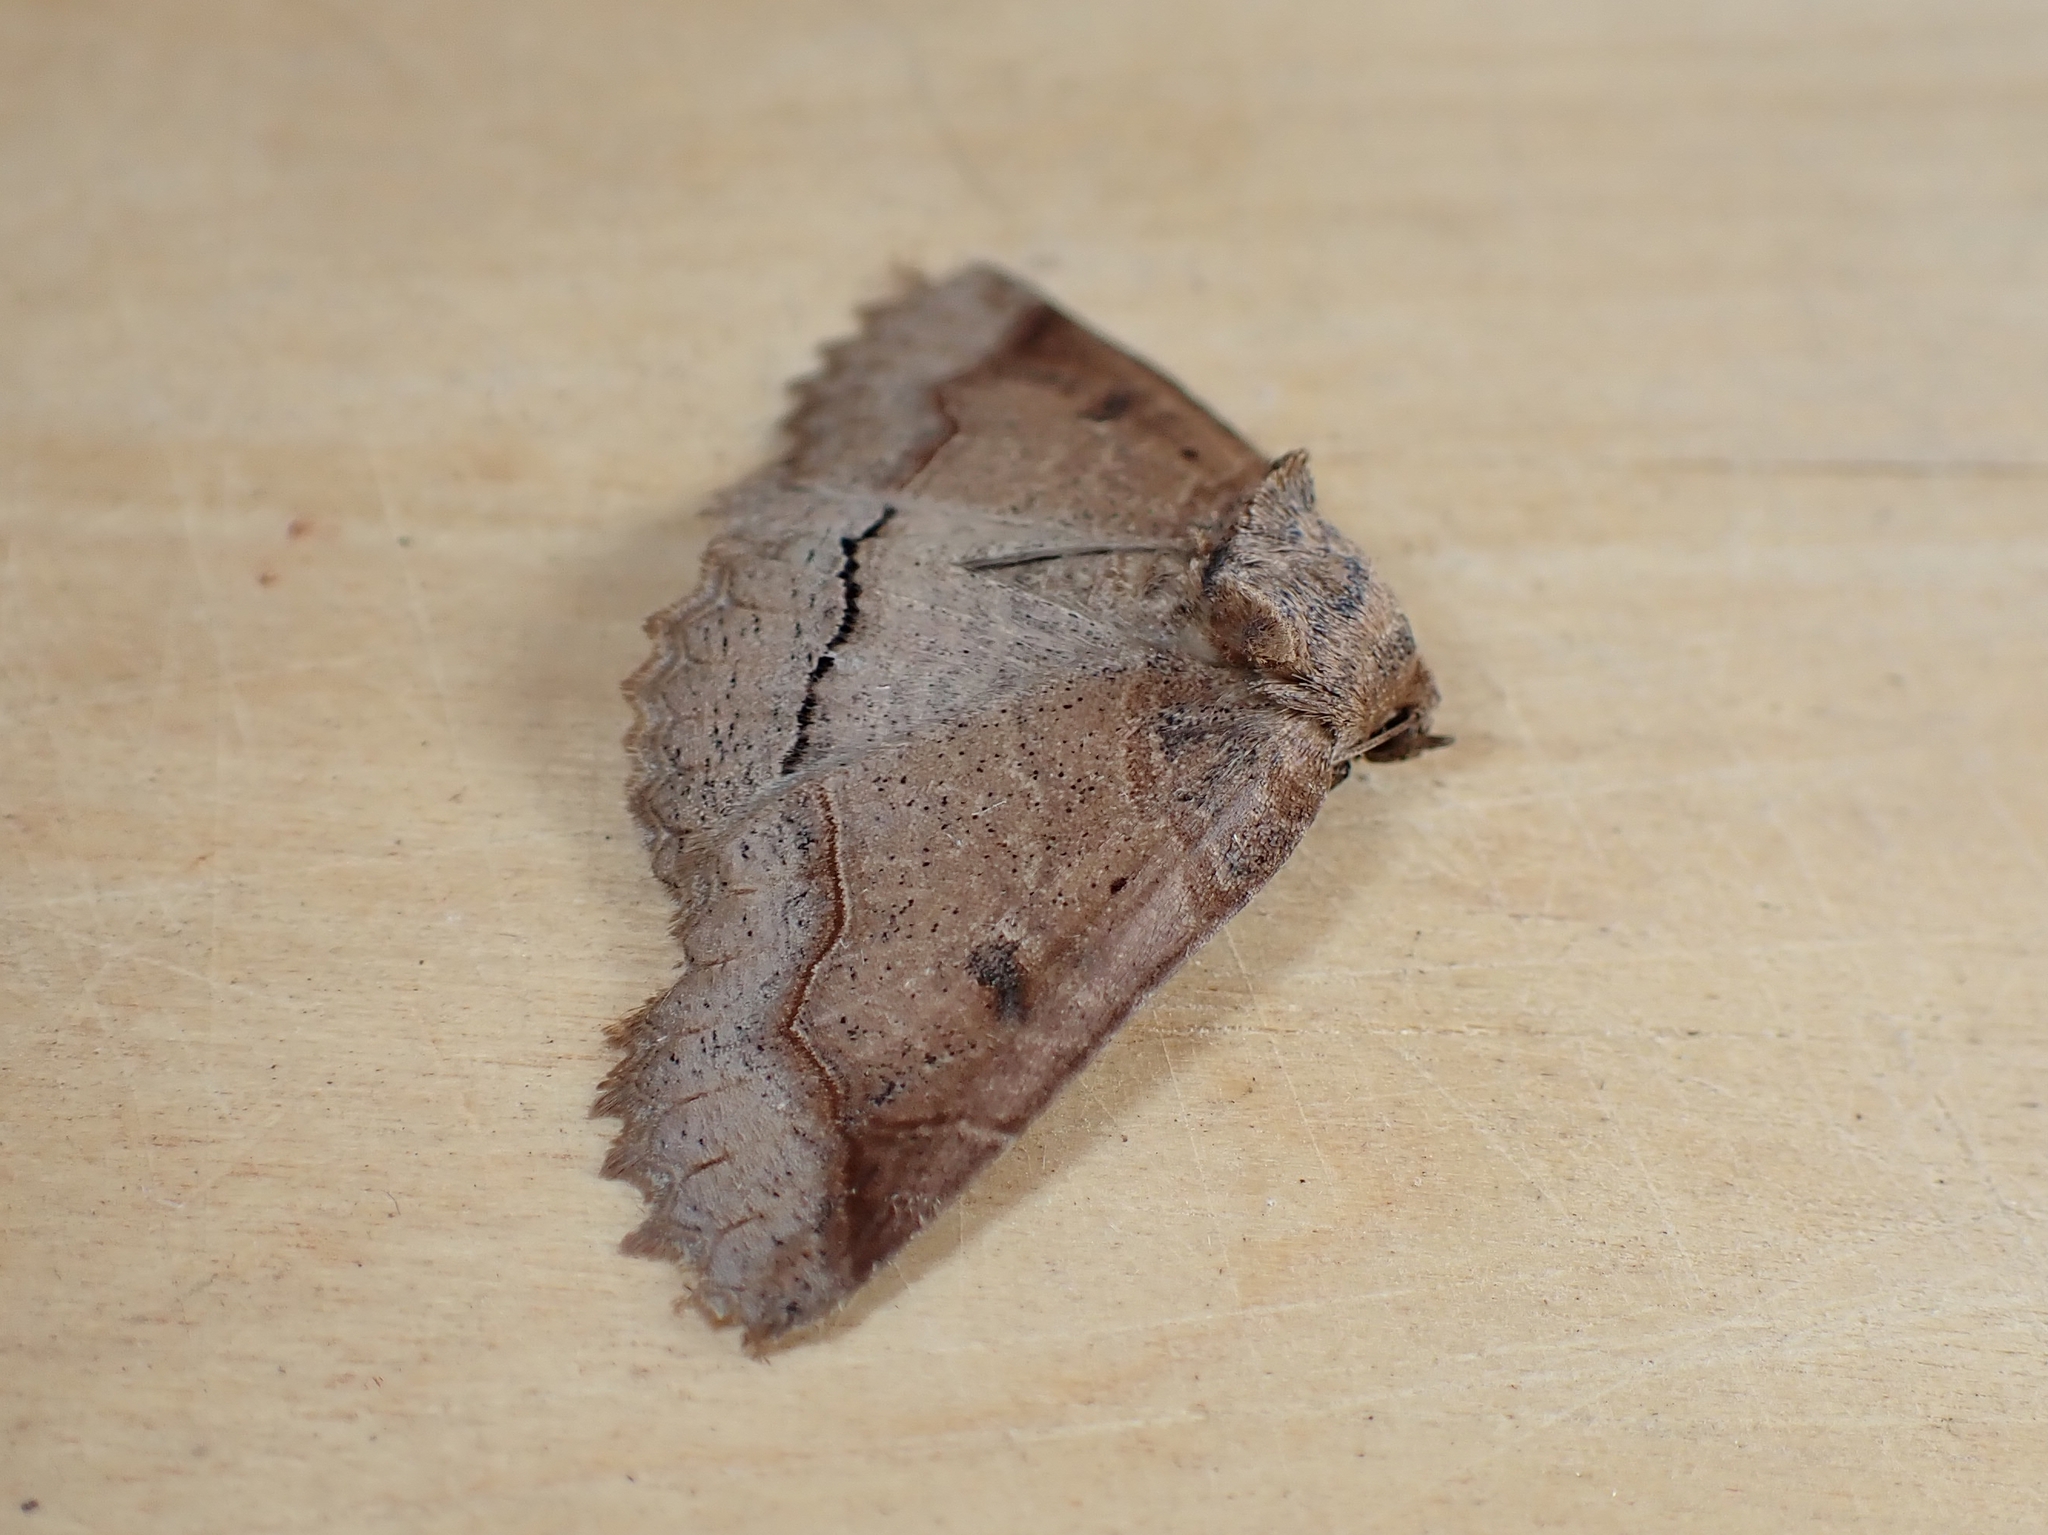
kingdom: Animalia
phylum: Arthropoda
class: Insecta
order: Lepidoptera
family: Erebidae
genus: Zale
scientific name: Zale unilineata
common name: One-lined zale moth
